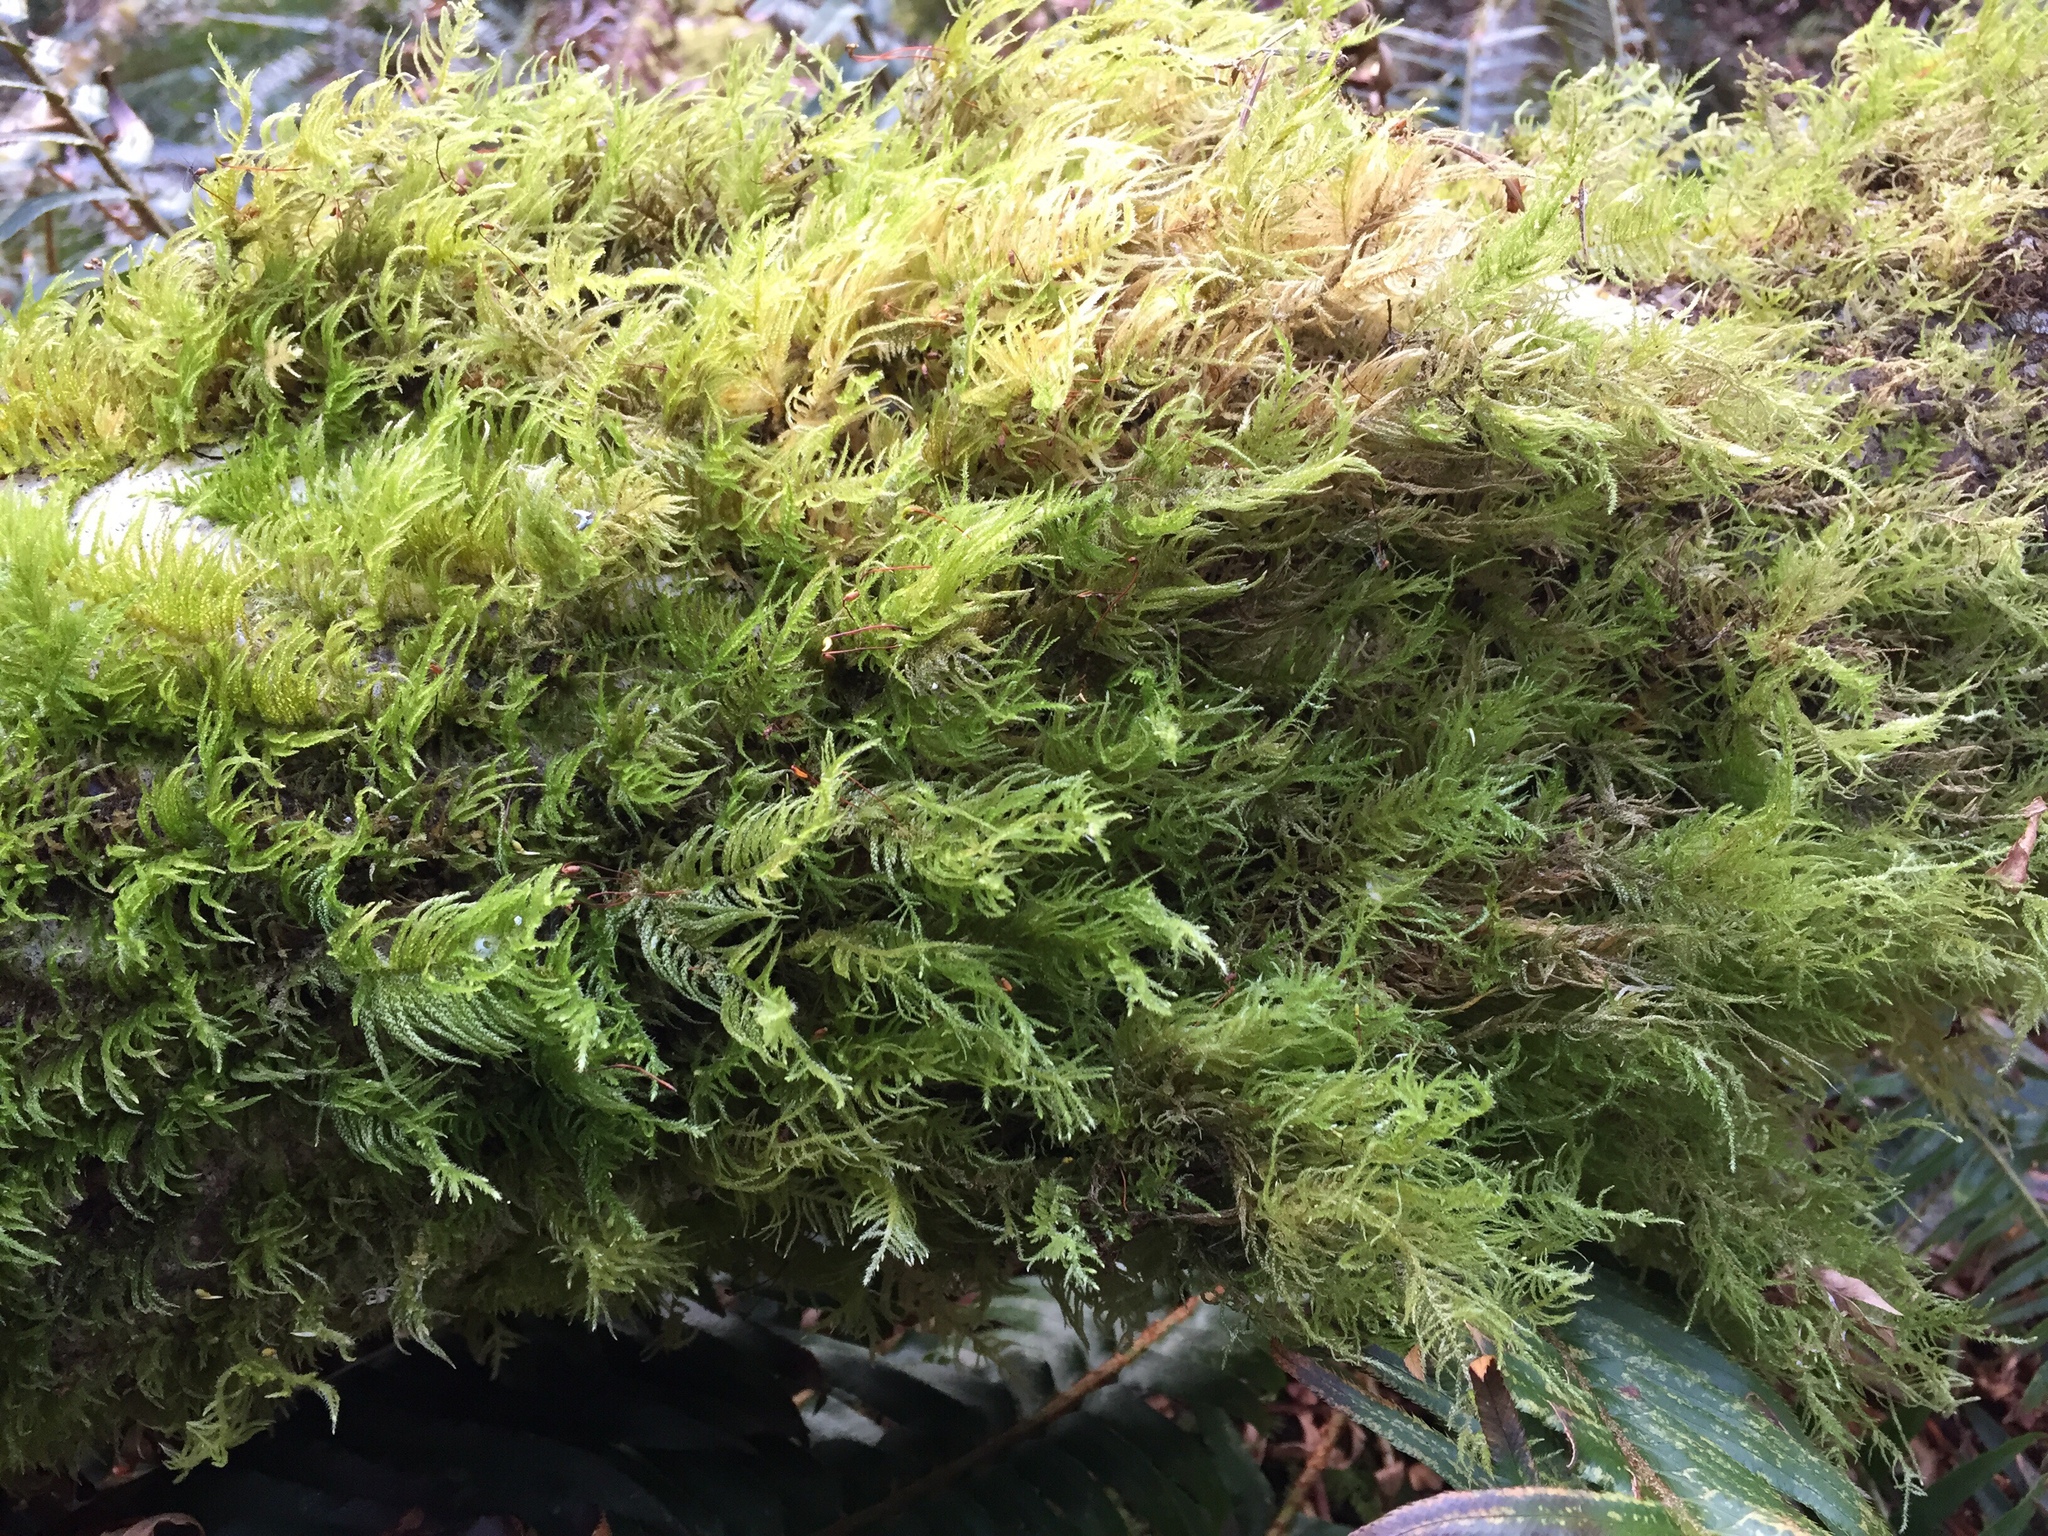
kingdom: Plantae
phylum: Bryophyta
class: Bryopsida
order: Hypnales
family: Brachytheciaceae
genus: Kindbergia
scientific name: Kindbergia praelonga
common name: Slender beaked moss
